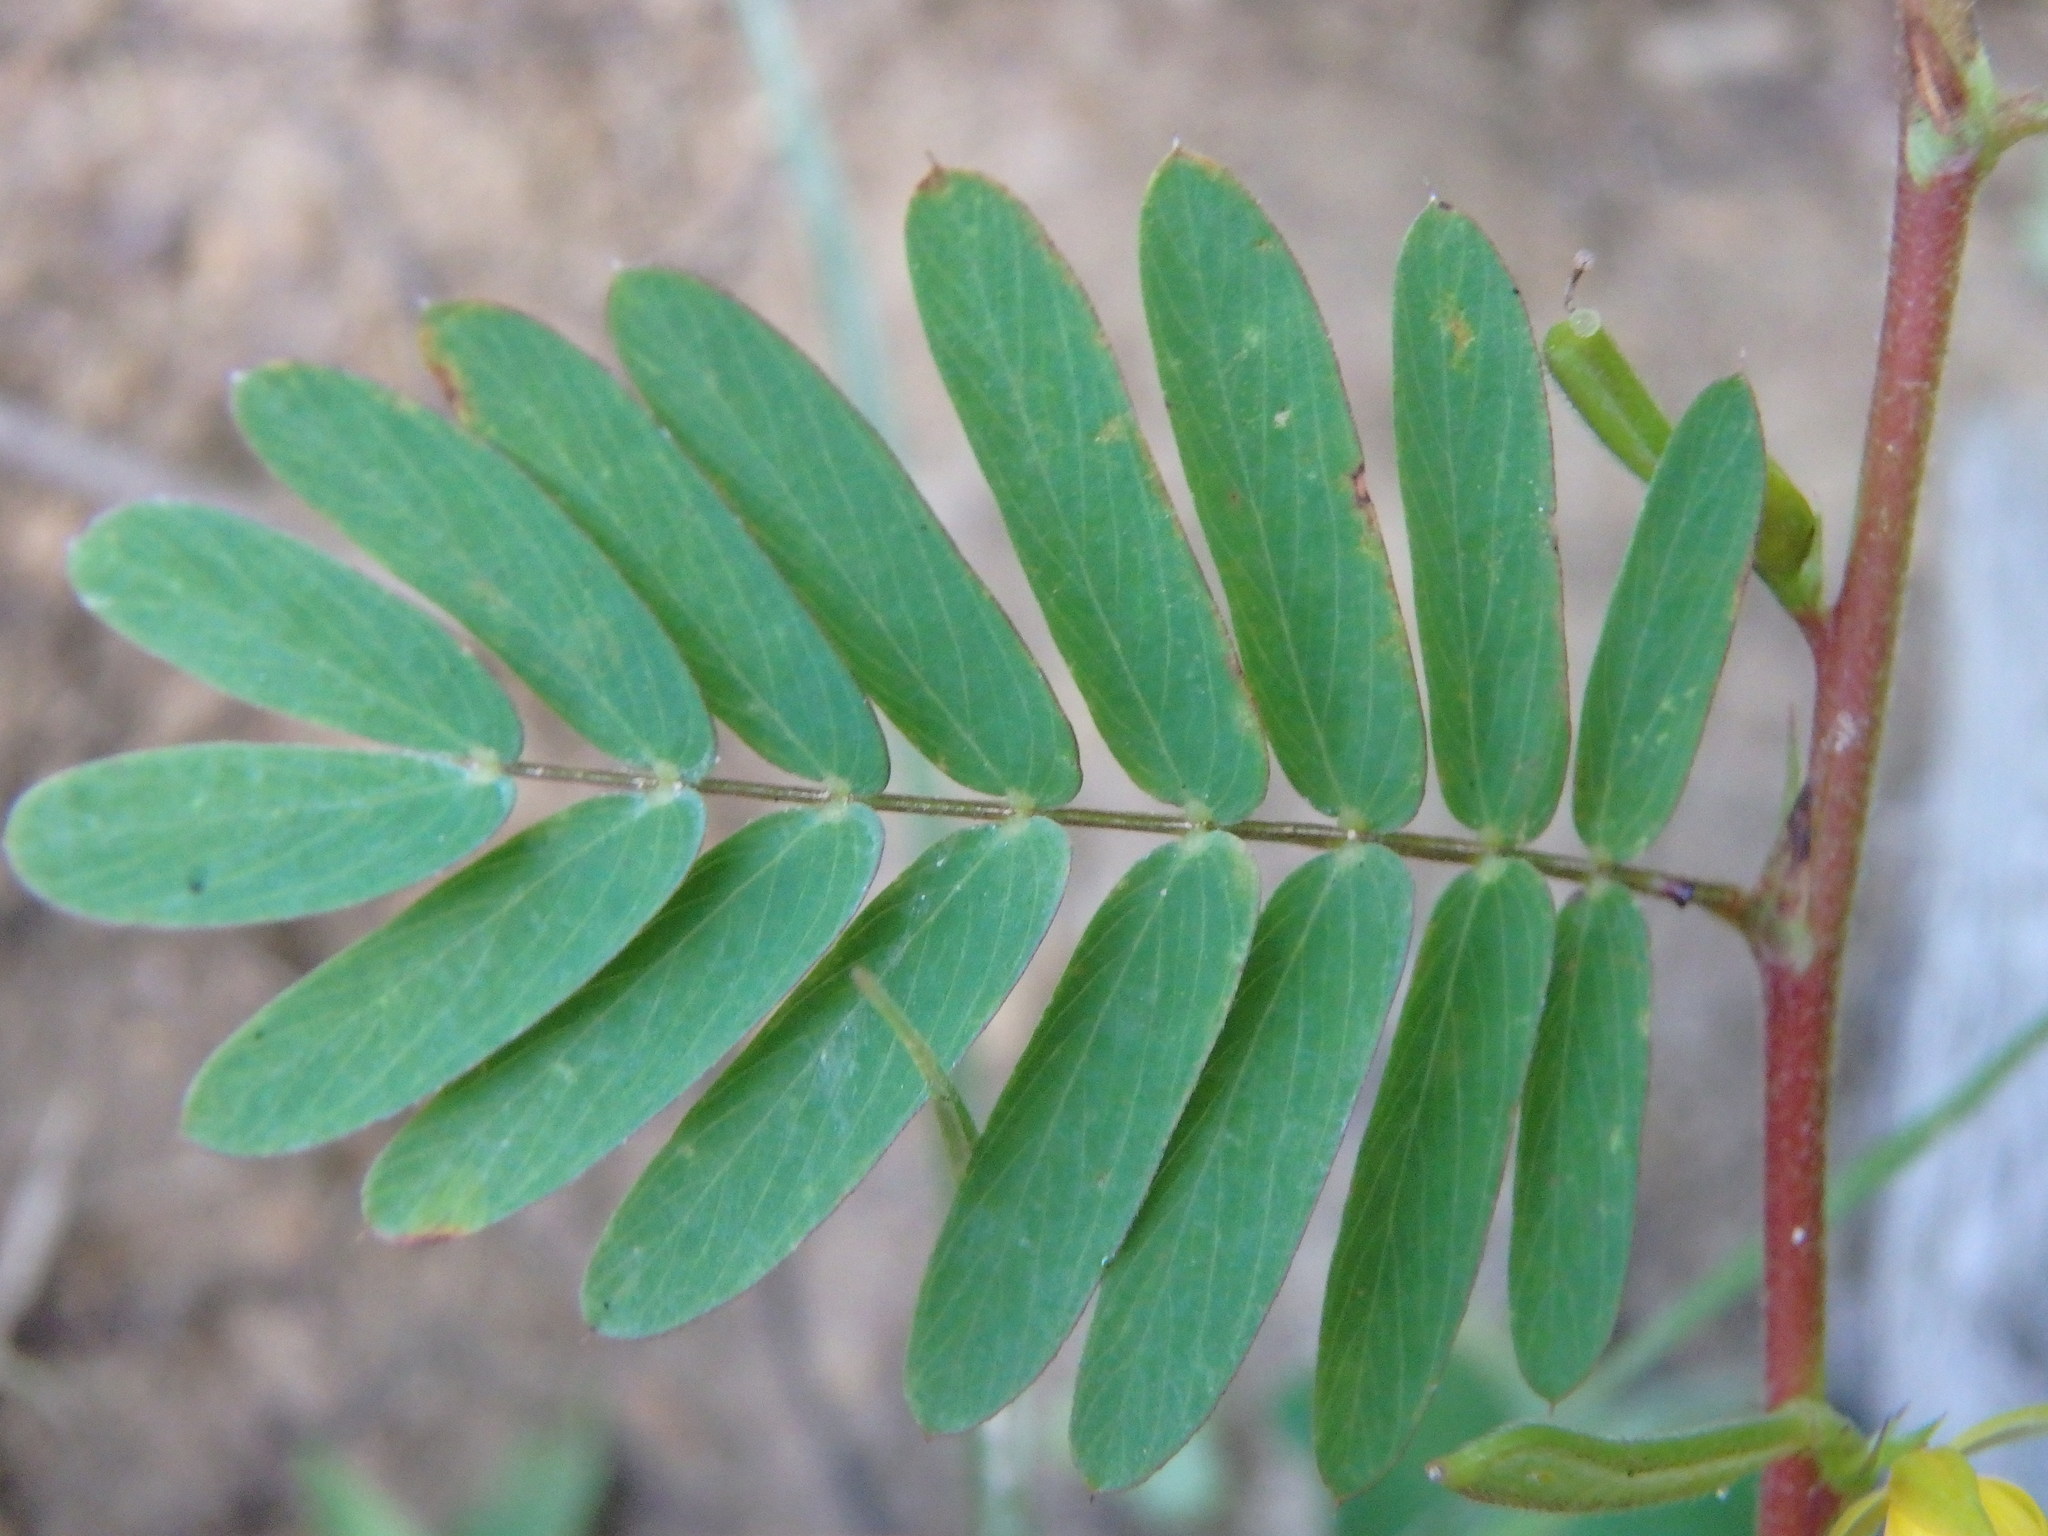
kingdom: Plantae
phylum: Tracheophyta
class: Magnoliopsida
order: Fabales
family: Fabaceae
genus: Chamaecrista
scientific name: Chamaecrista nictitans
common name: Sensitive cassia
